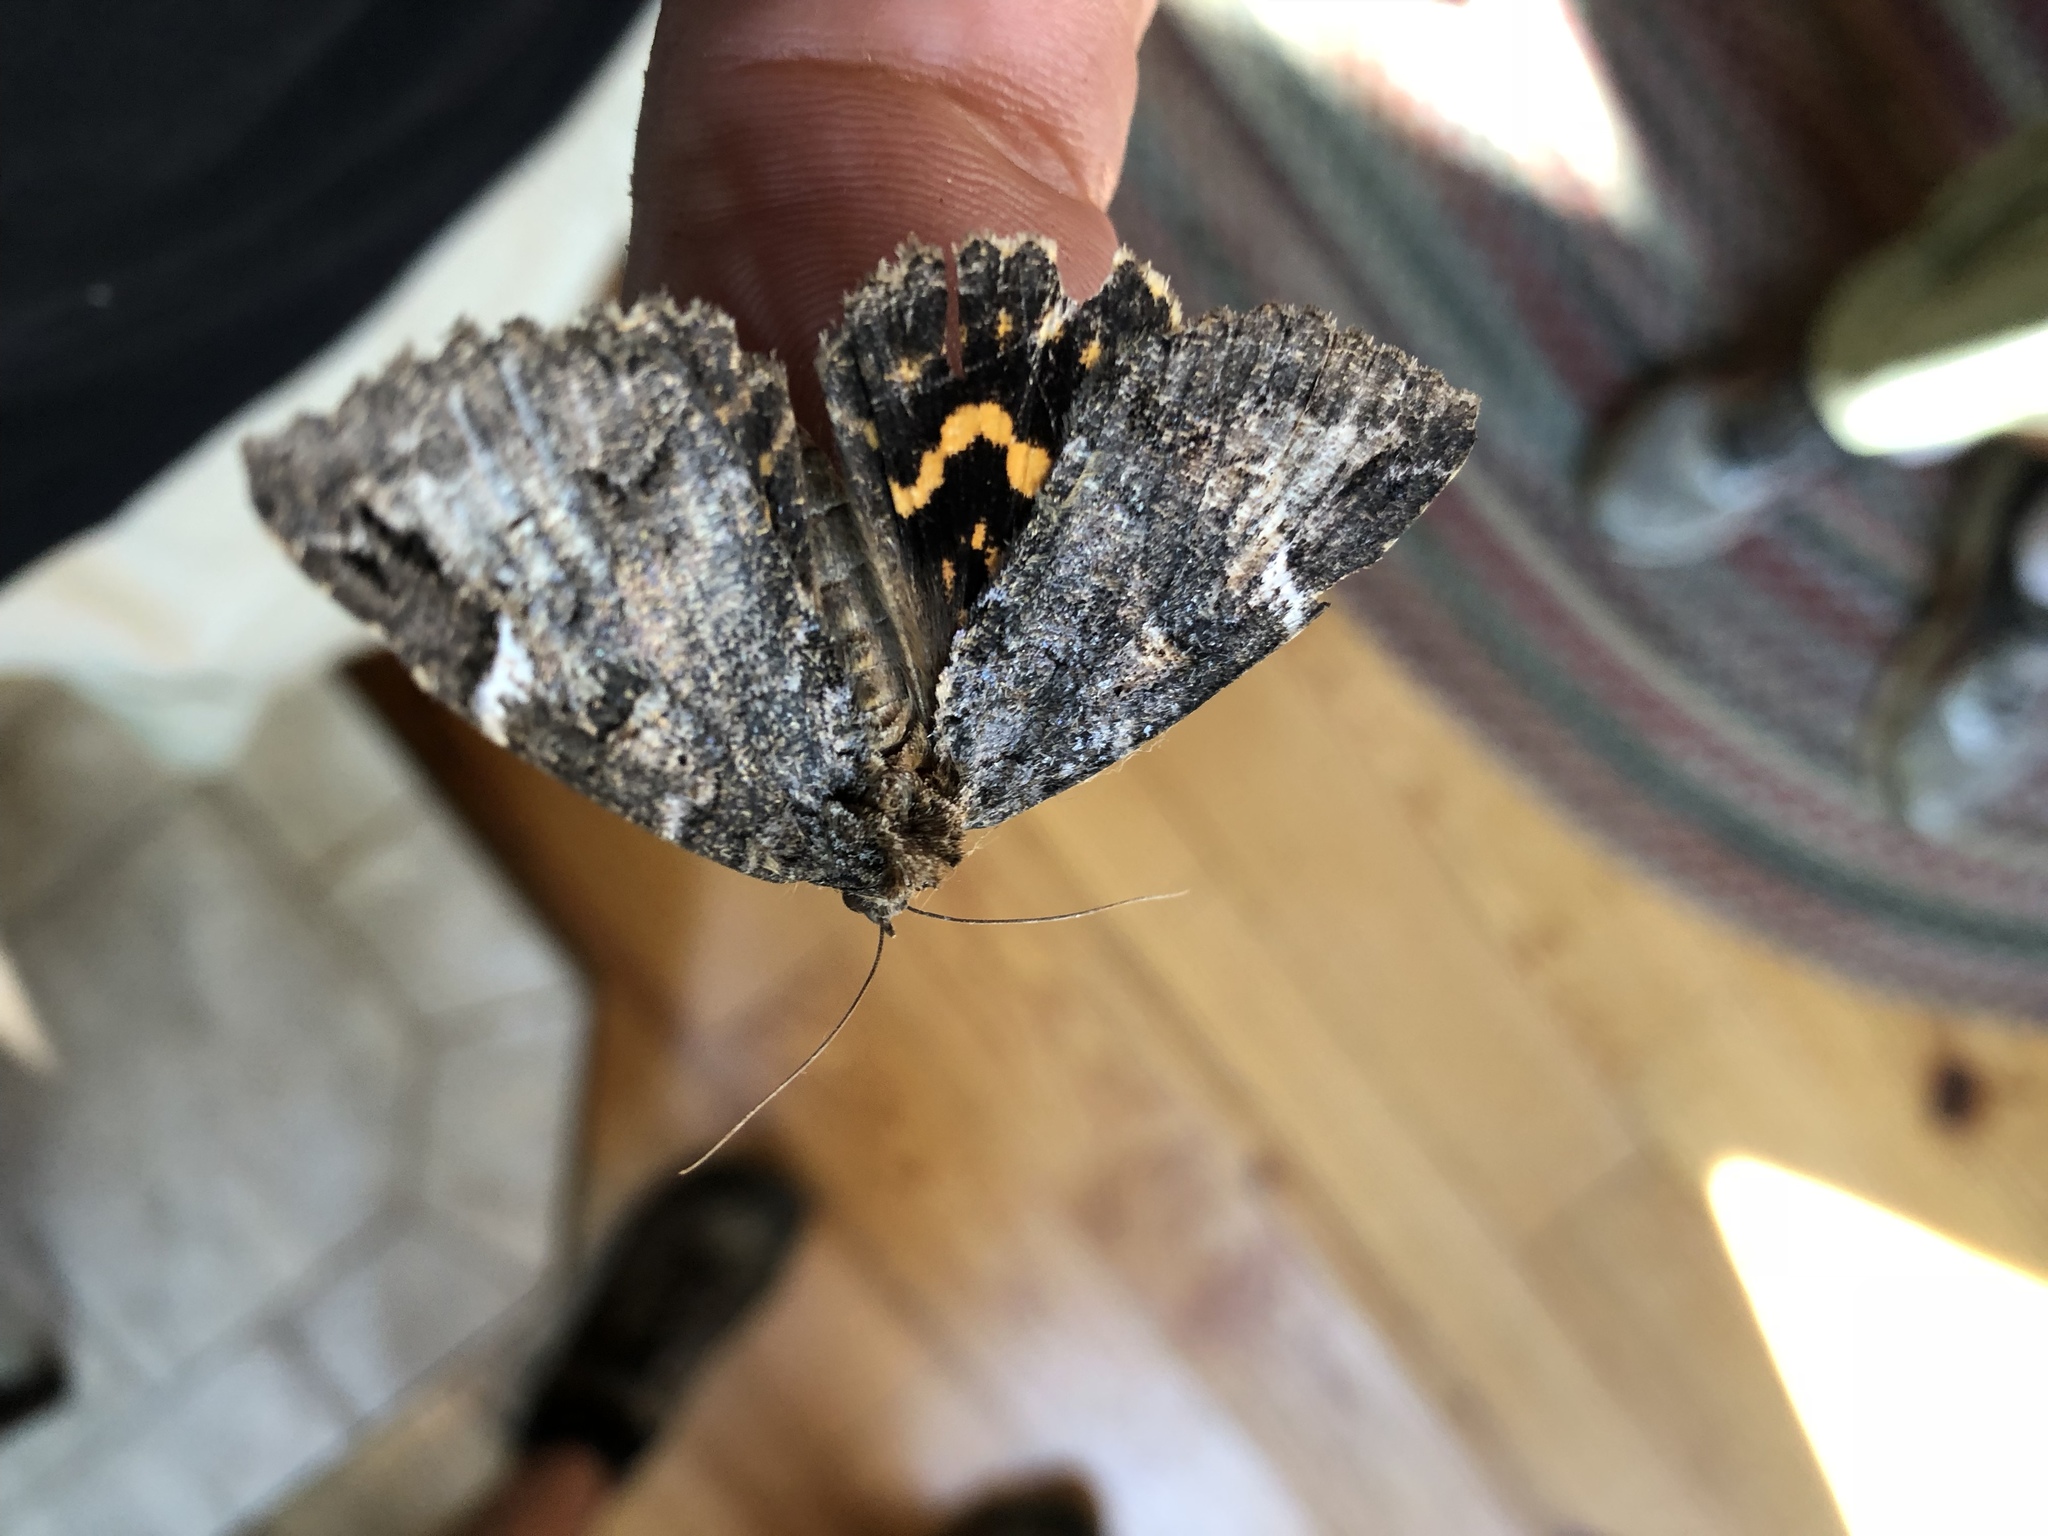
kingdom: Animalia
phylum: Arthropoda
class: Insecta
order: Lepidoptera
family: Erebidae
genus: Euparthenos
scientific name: Euparthenos nubilis
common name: Locust underwing
